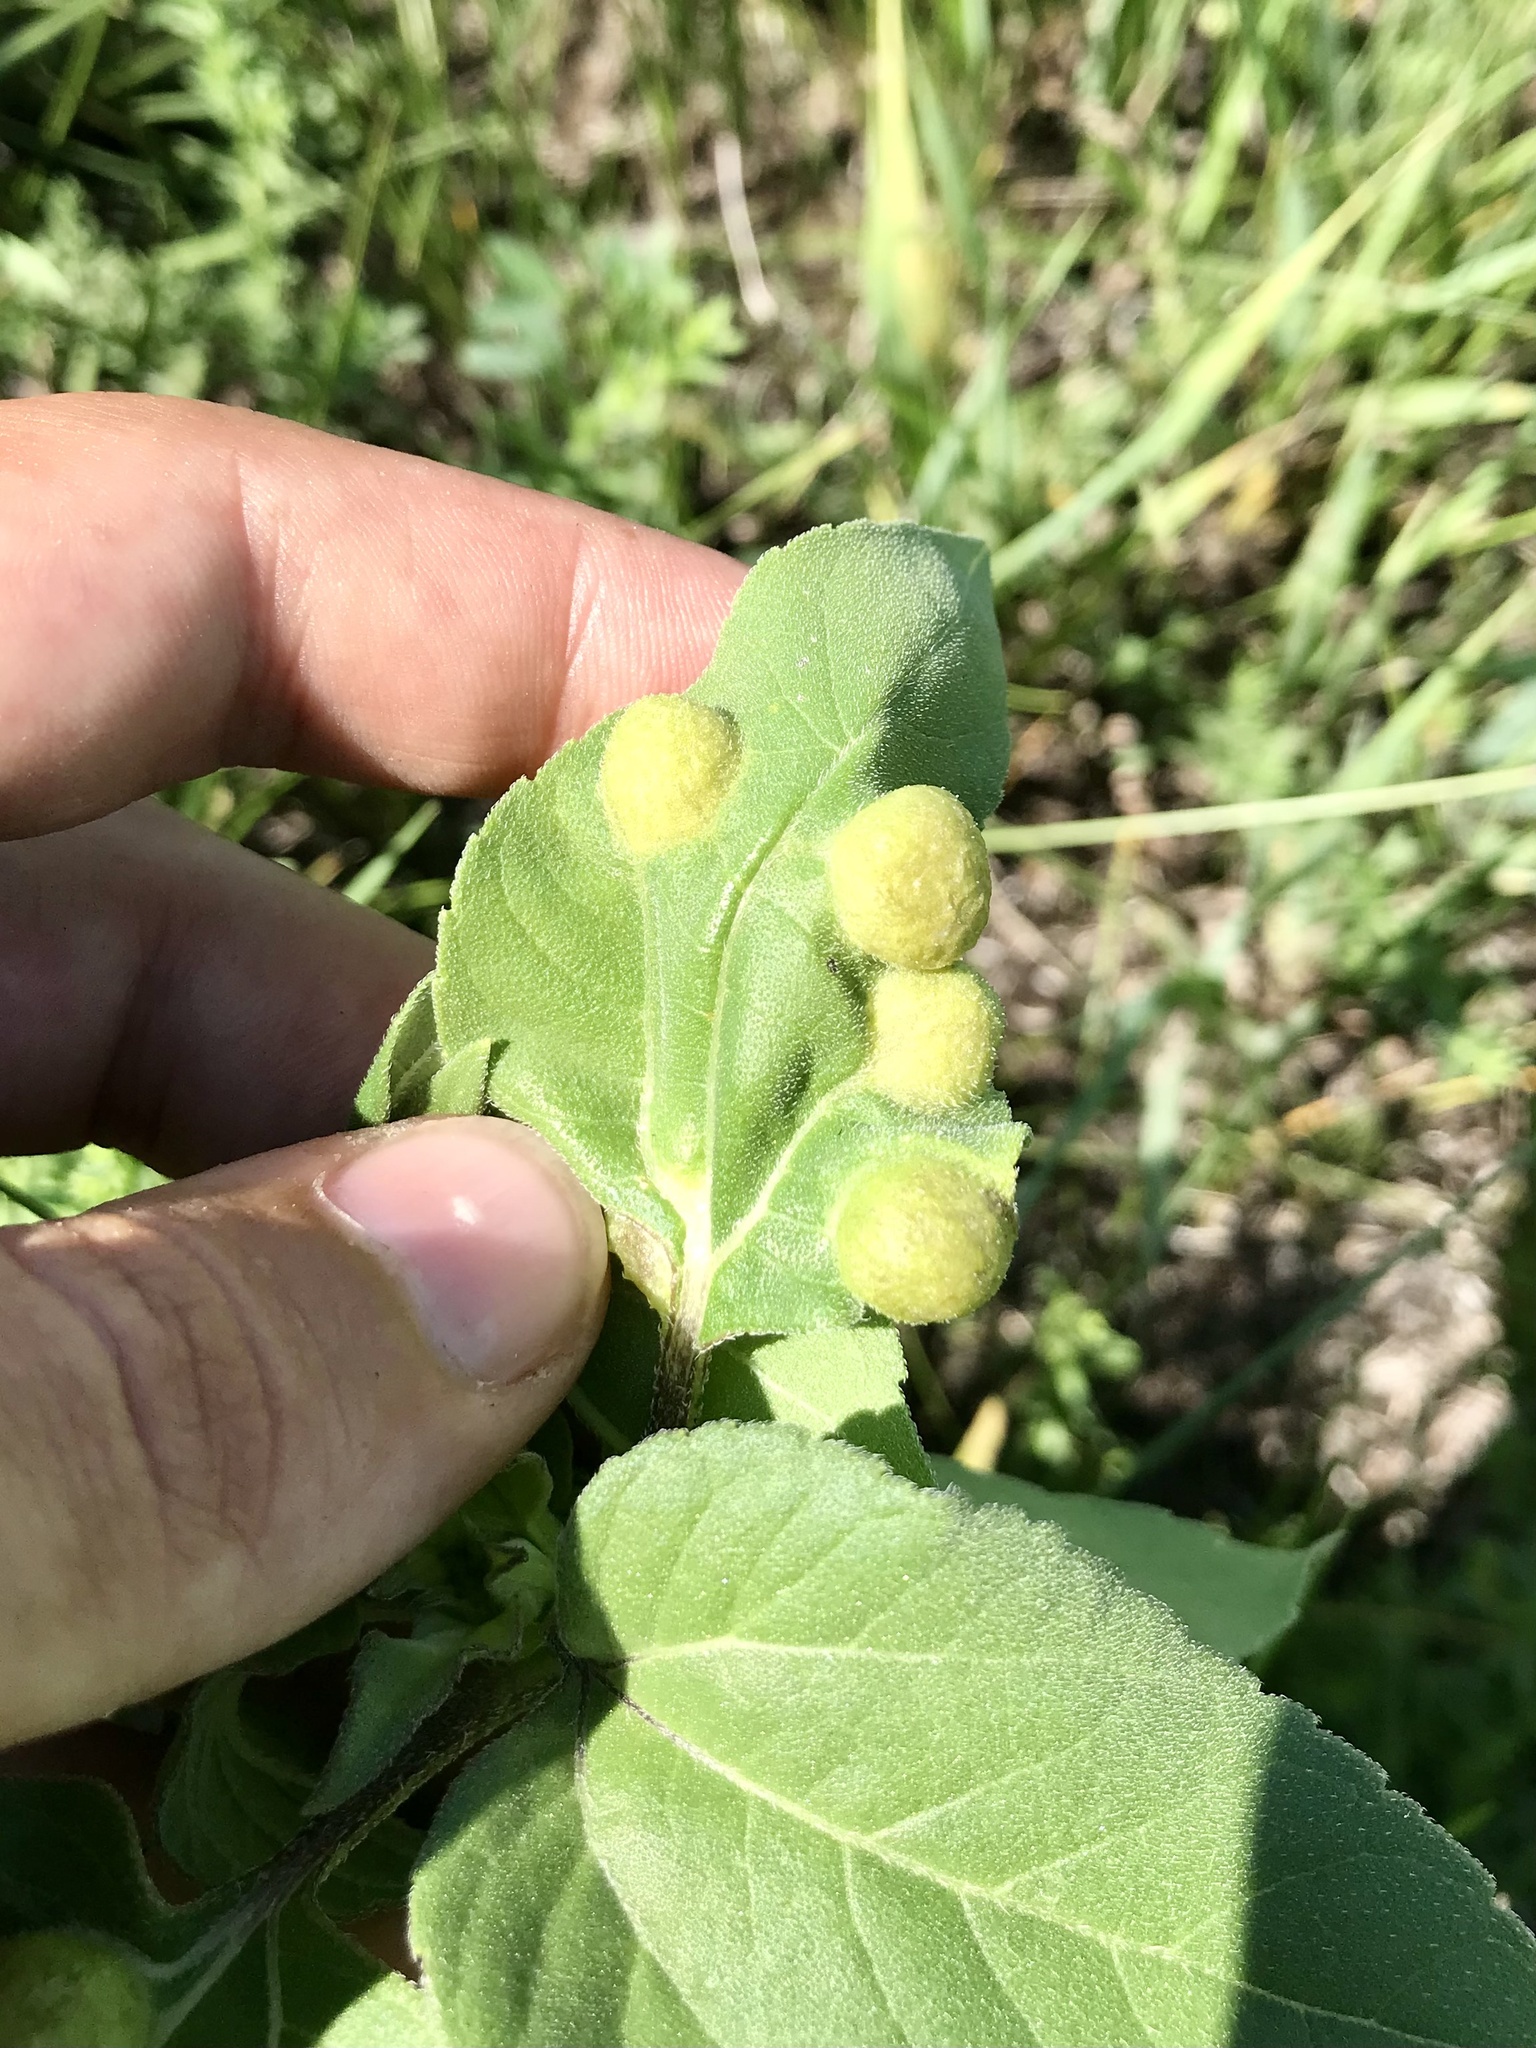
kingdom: Animalia
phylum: Arthropoda
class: Insecta
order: Diptera
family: Cecidomyiidae
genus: Pilodiplosis
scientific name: Pilodiplosis helianthibulla
